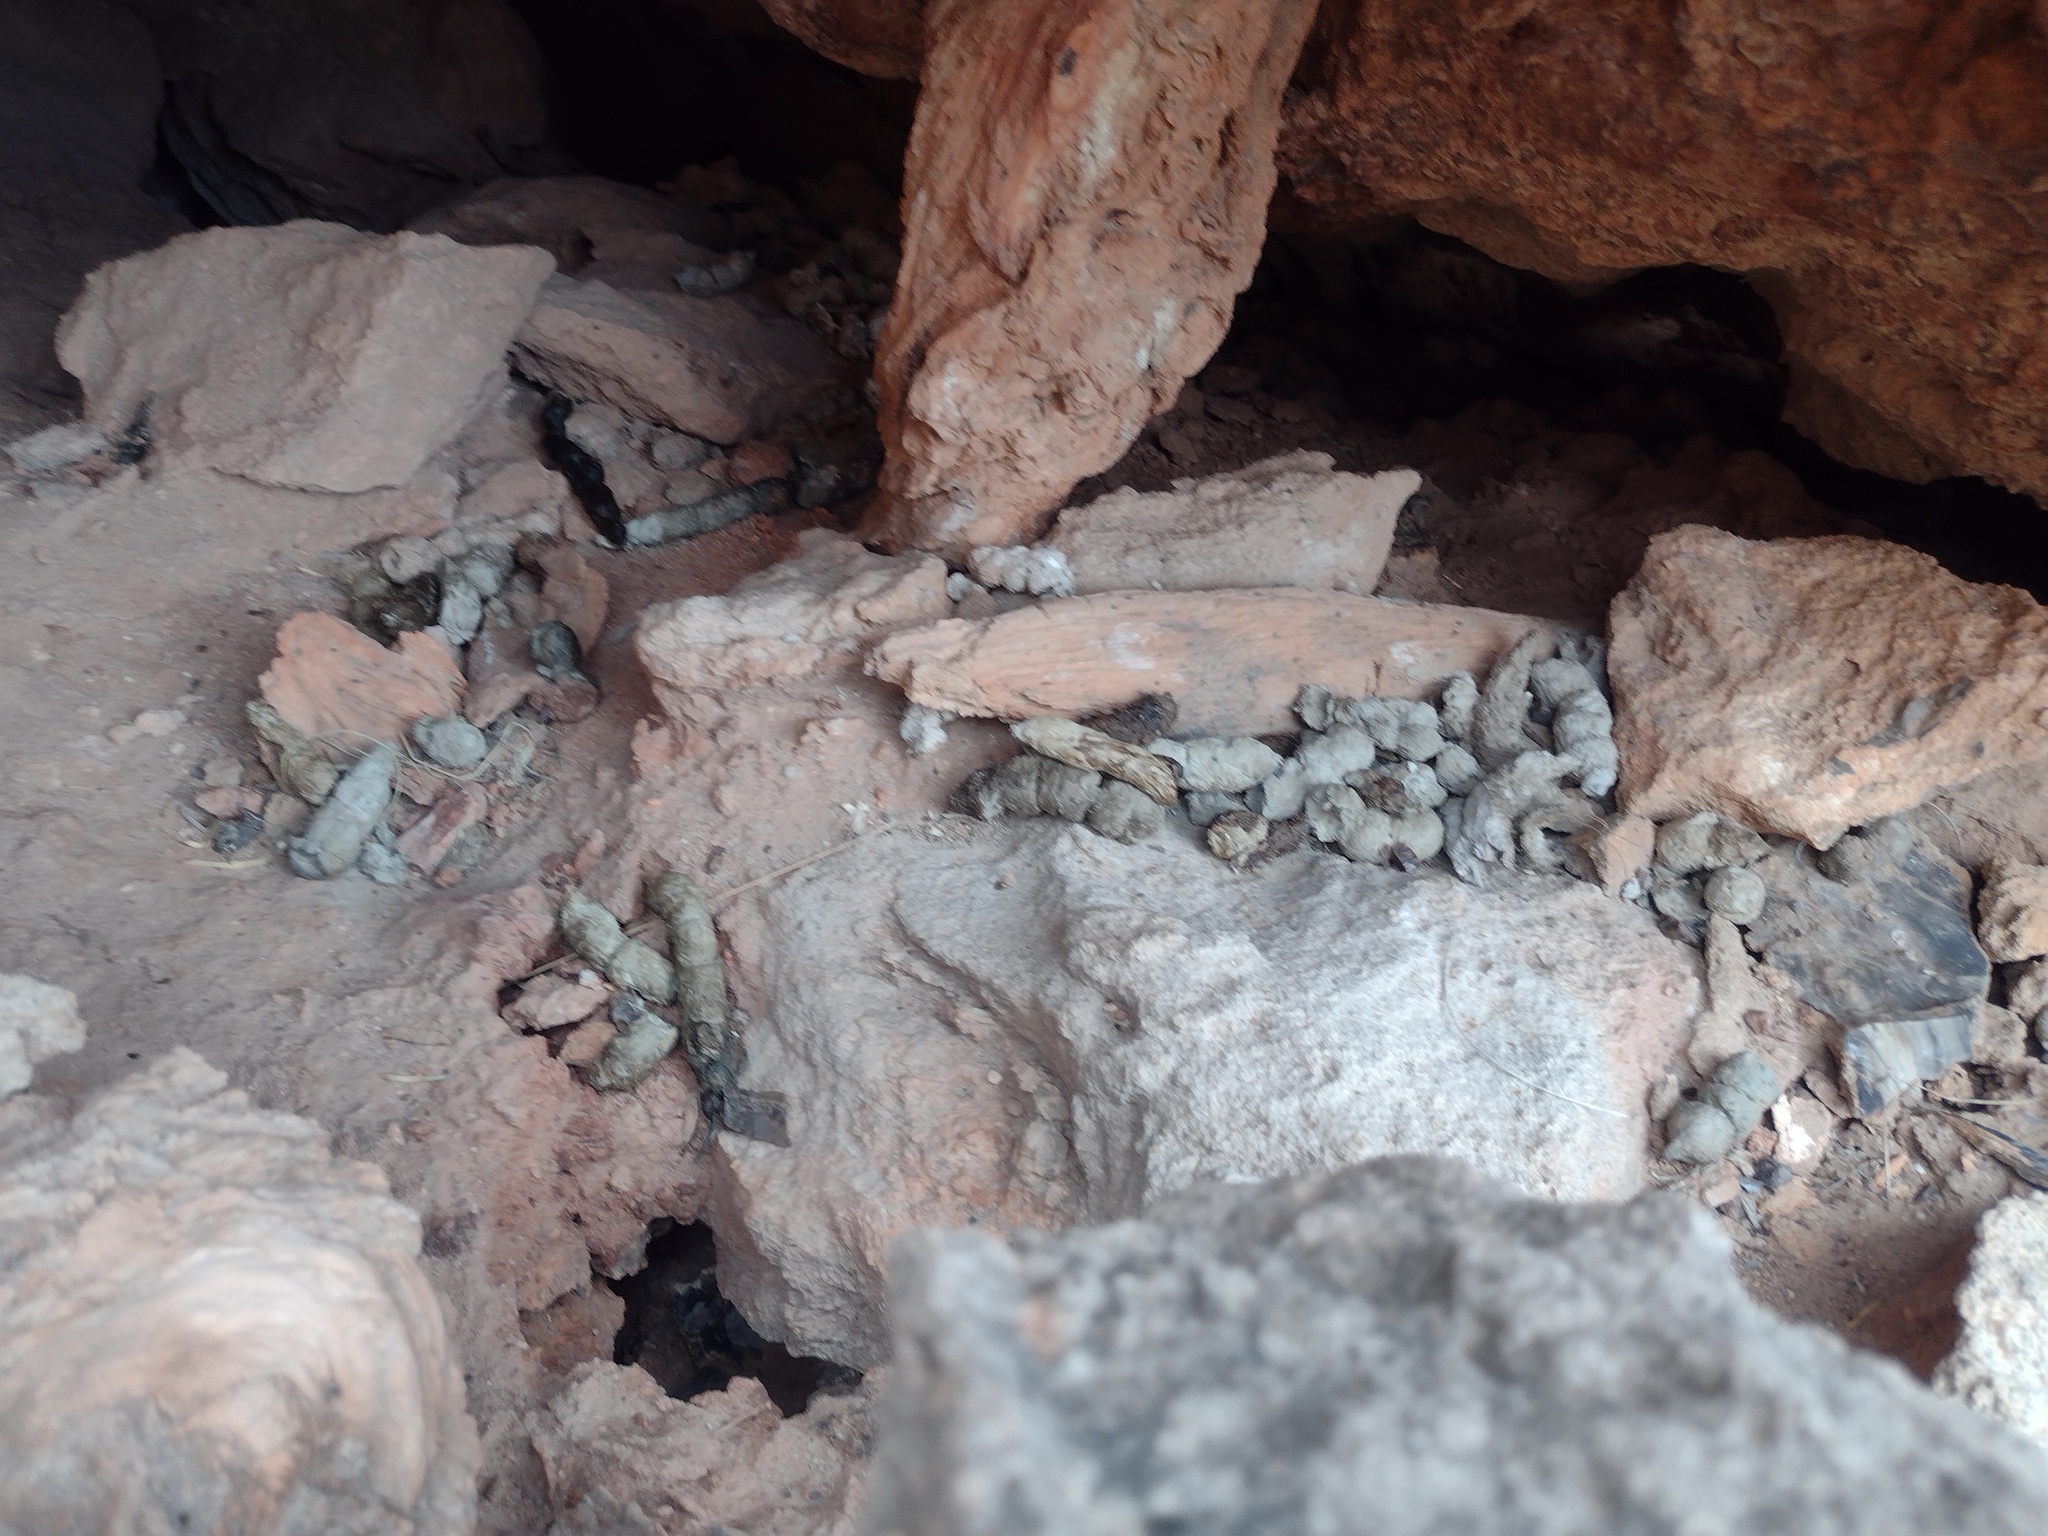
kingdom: Animalia
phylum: Chordata
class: Mammalia
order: Carnivora
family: Felidae
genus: Puma
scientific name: Puma concolor
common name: Puma
